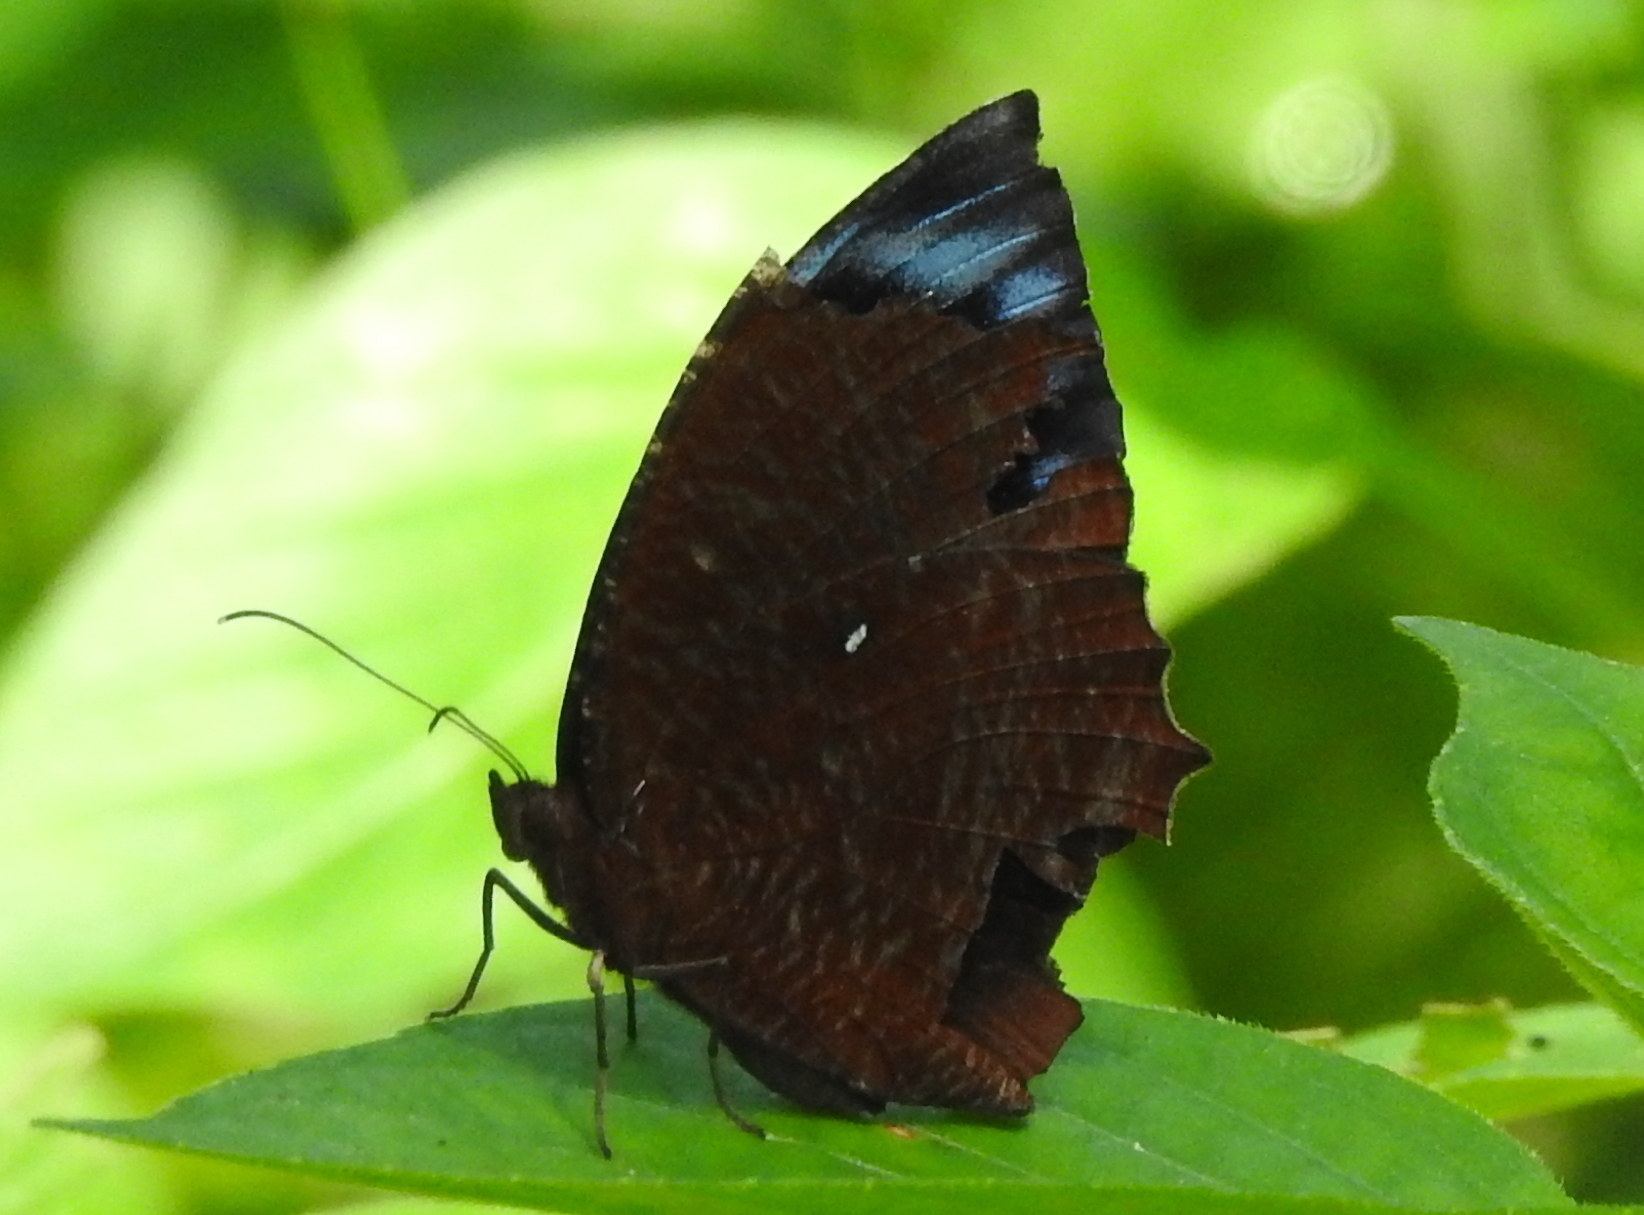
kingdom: Animalia
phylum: Arthropoda
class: Insecta
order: Lepidoptera
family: Nymphalidae
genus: Elymnias
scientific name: Elymnias hypermnestra
